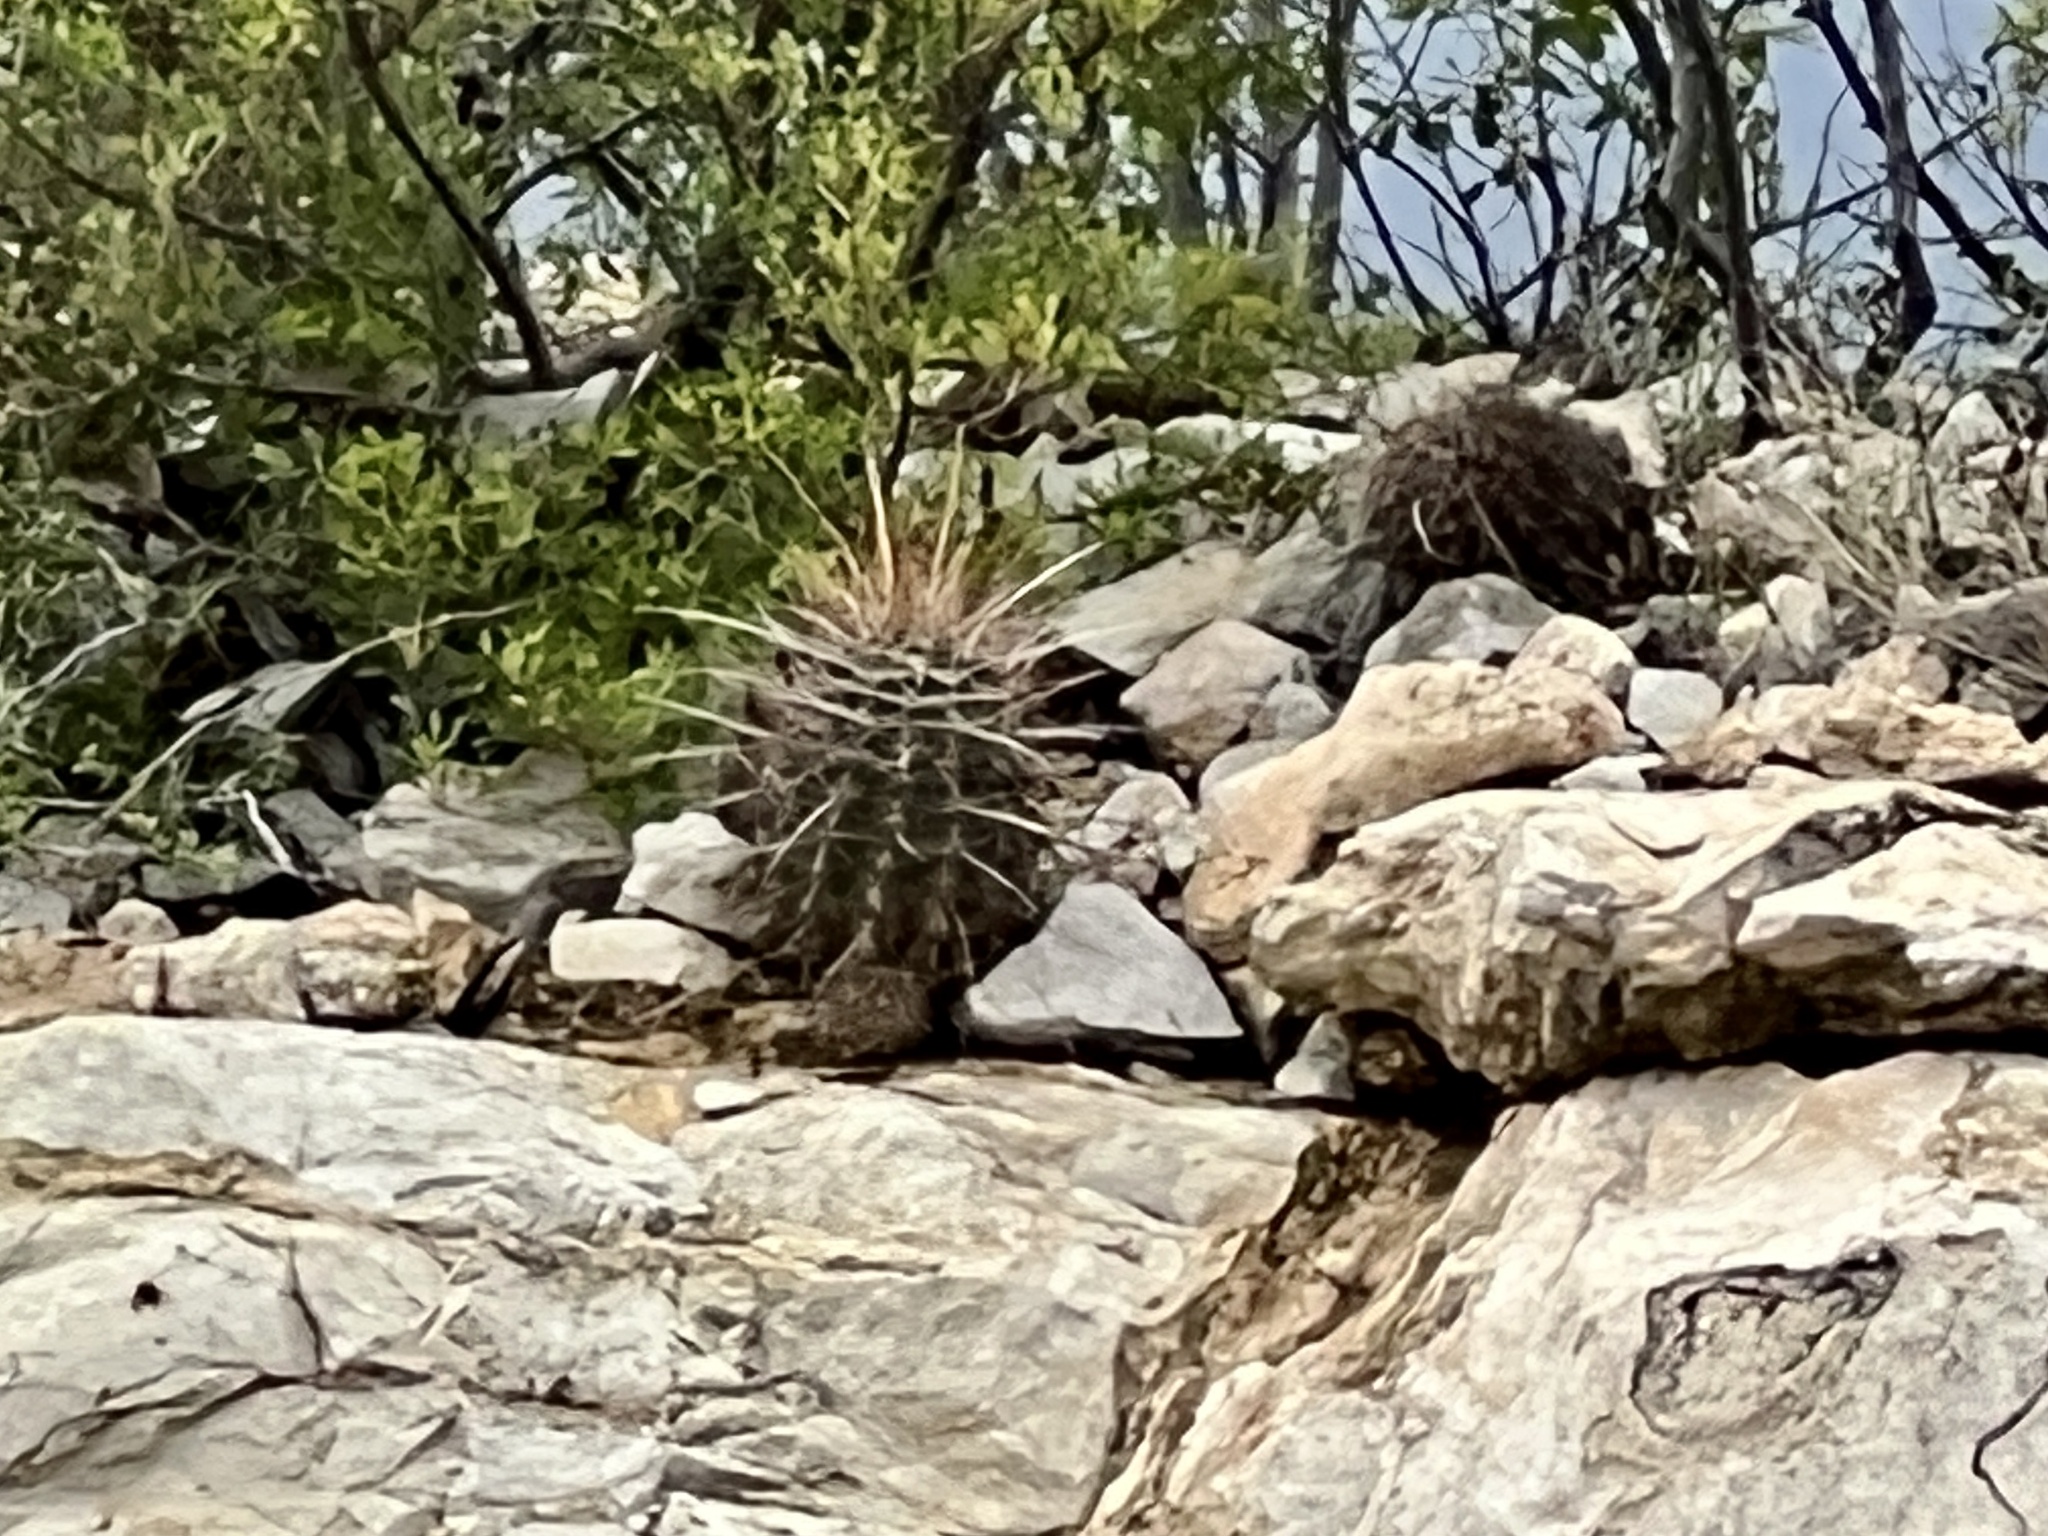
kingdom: Plantae
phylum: Tracheophyta
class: Magnoliopsida
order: Caryophyllales
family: Cactaceae
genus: Bisnaga
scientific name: Bisnaga hamatacantha
